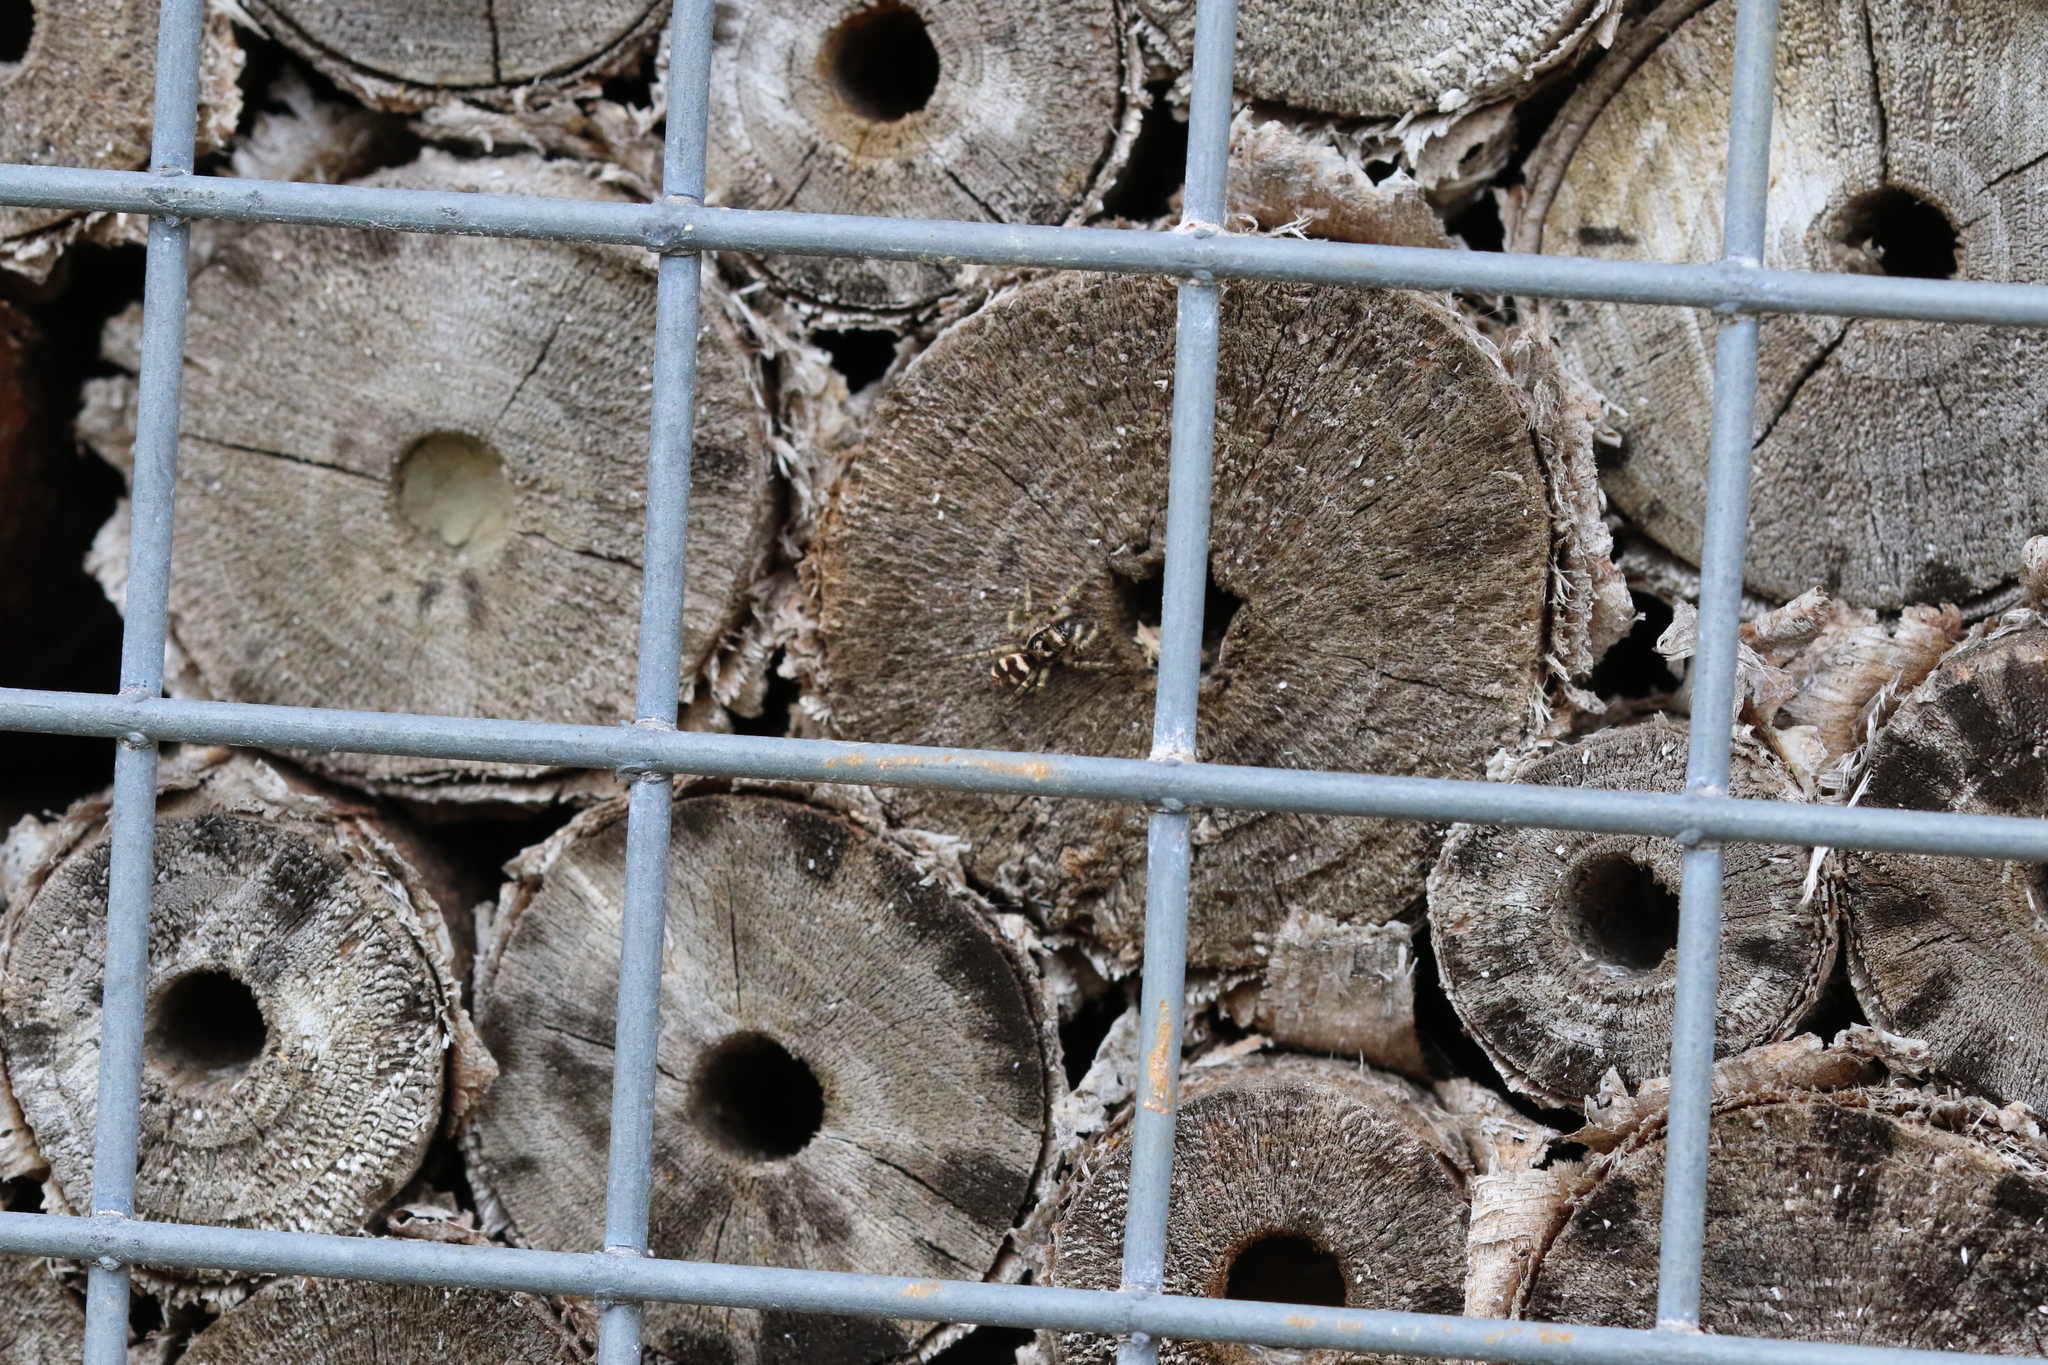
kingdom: Animalia
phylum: Arthropoda
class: Arachnida
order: Araneae
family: Salticidae
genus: Salticus
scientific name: Salticus scenicus
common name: Zebra jumper
